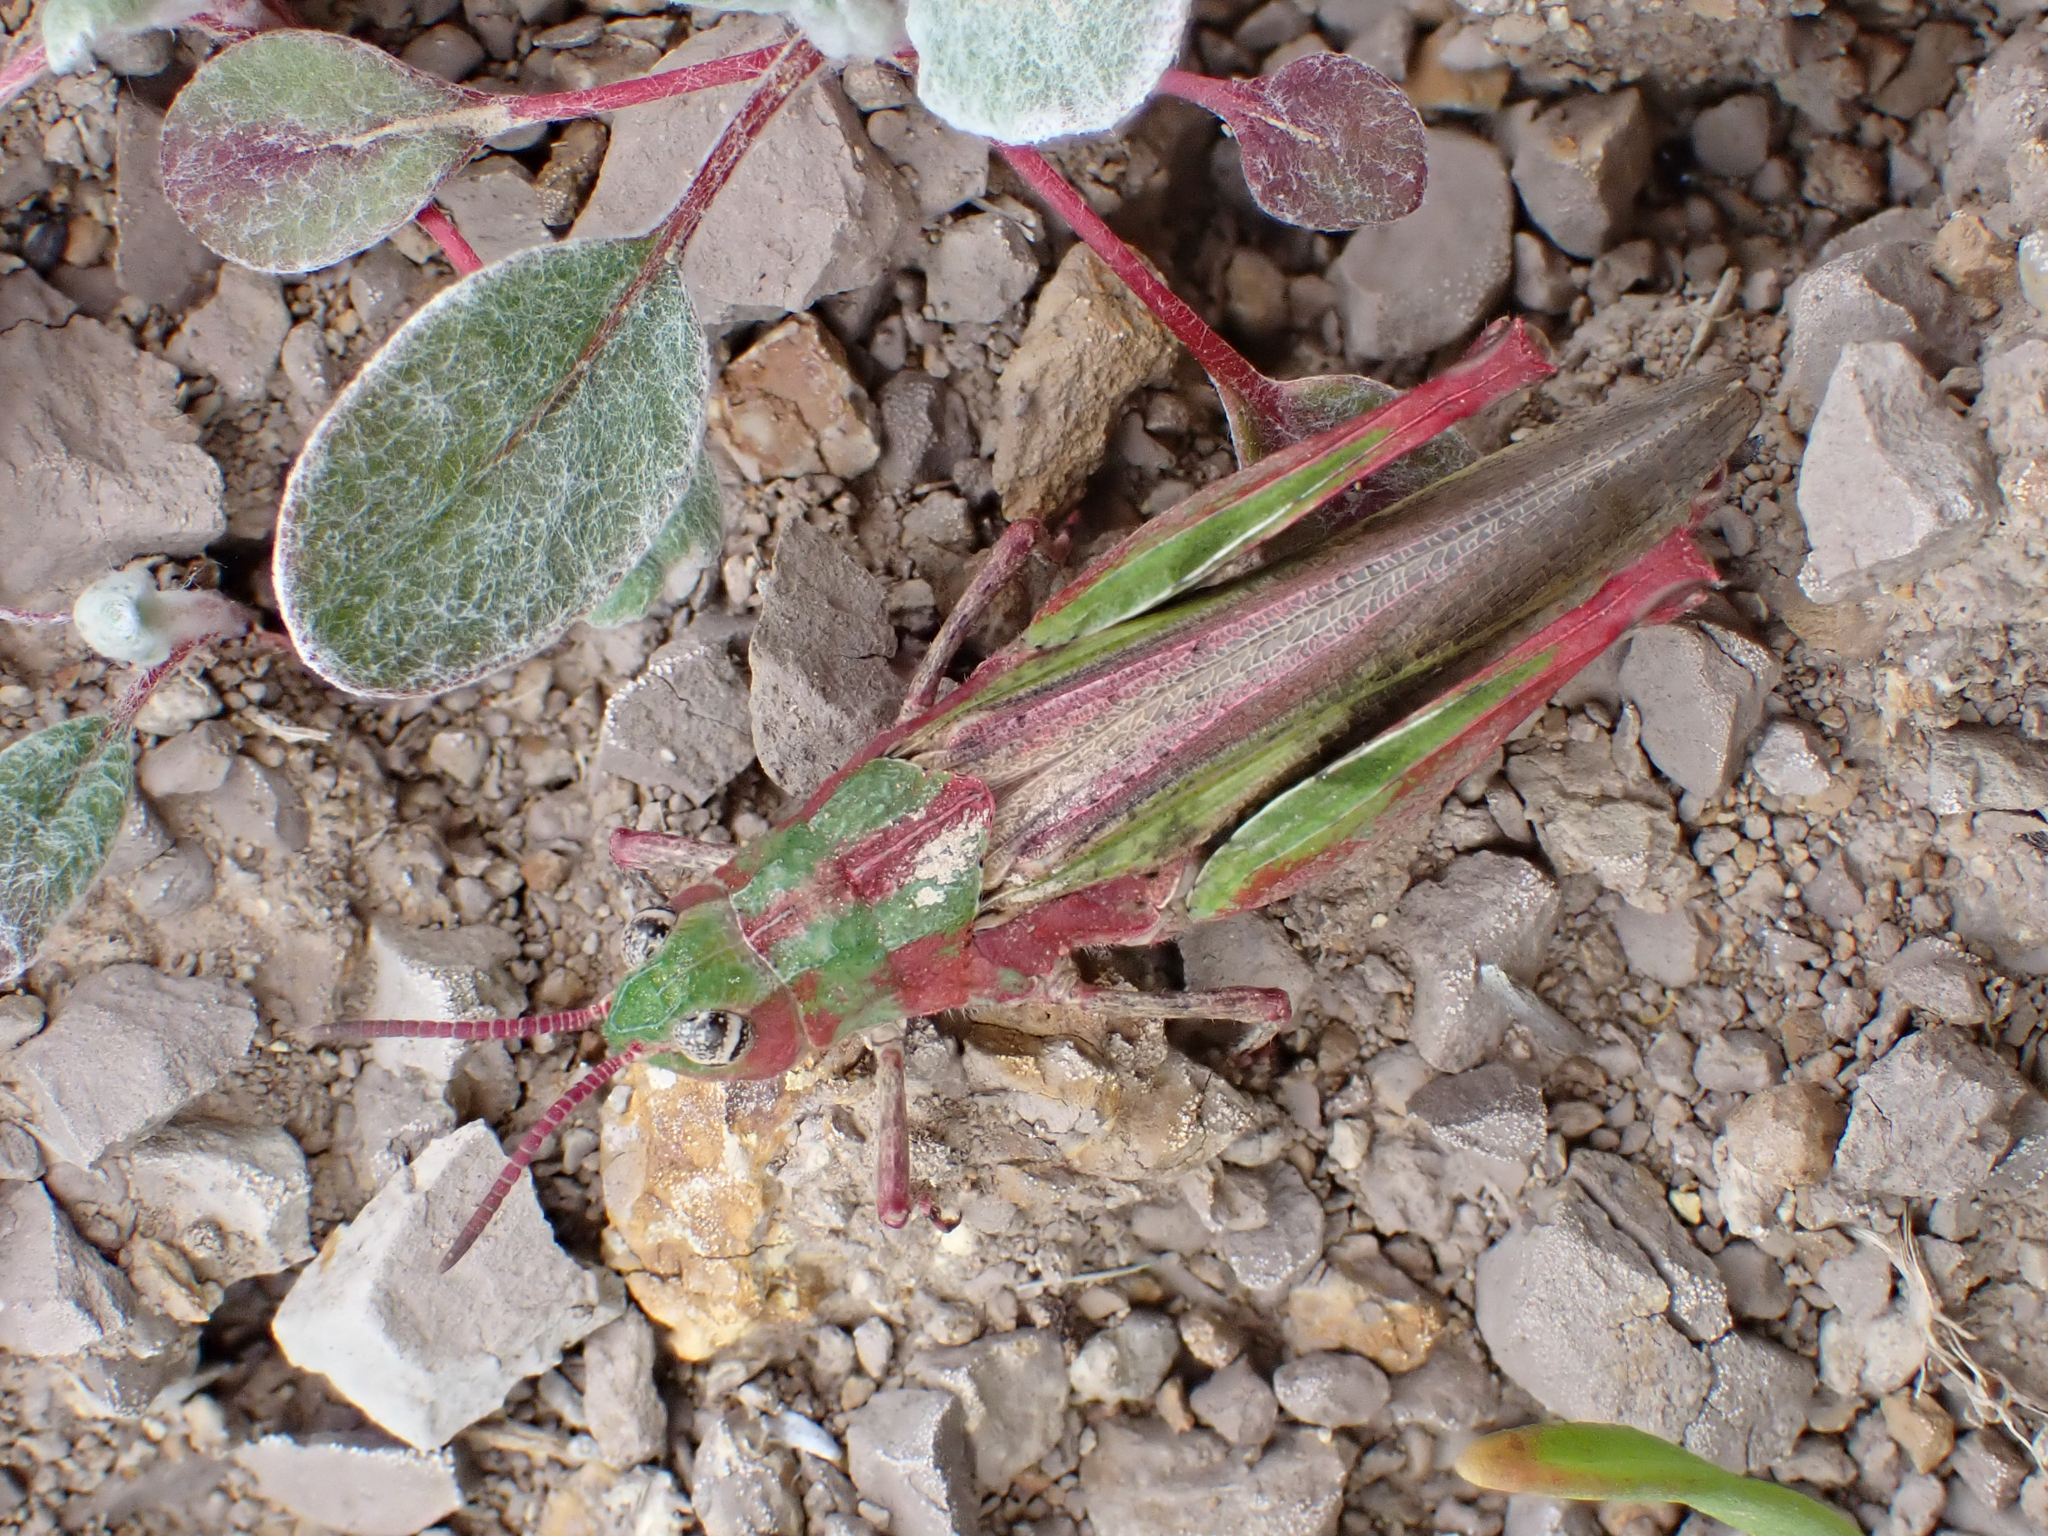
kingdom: Animalia
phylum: Arthropoda
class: Insecta
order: Orthoptera
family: Acrididae
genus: Chimarocephala
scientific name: Chimarocephala pacifica
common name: Painted meadow grasshopper
